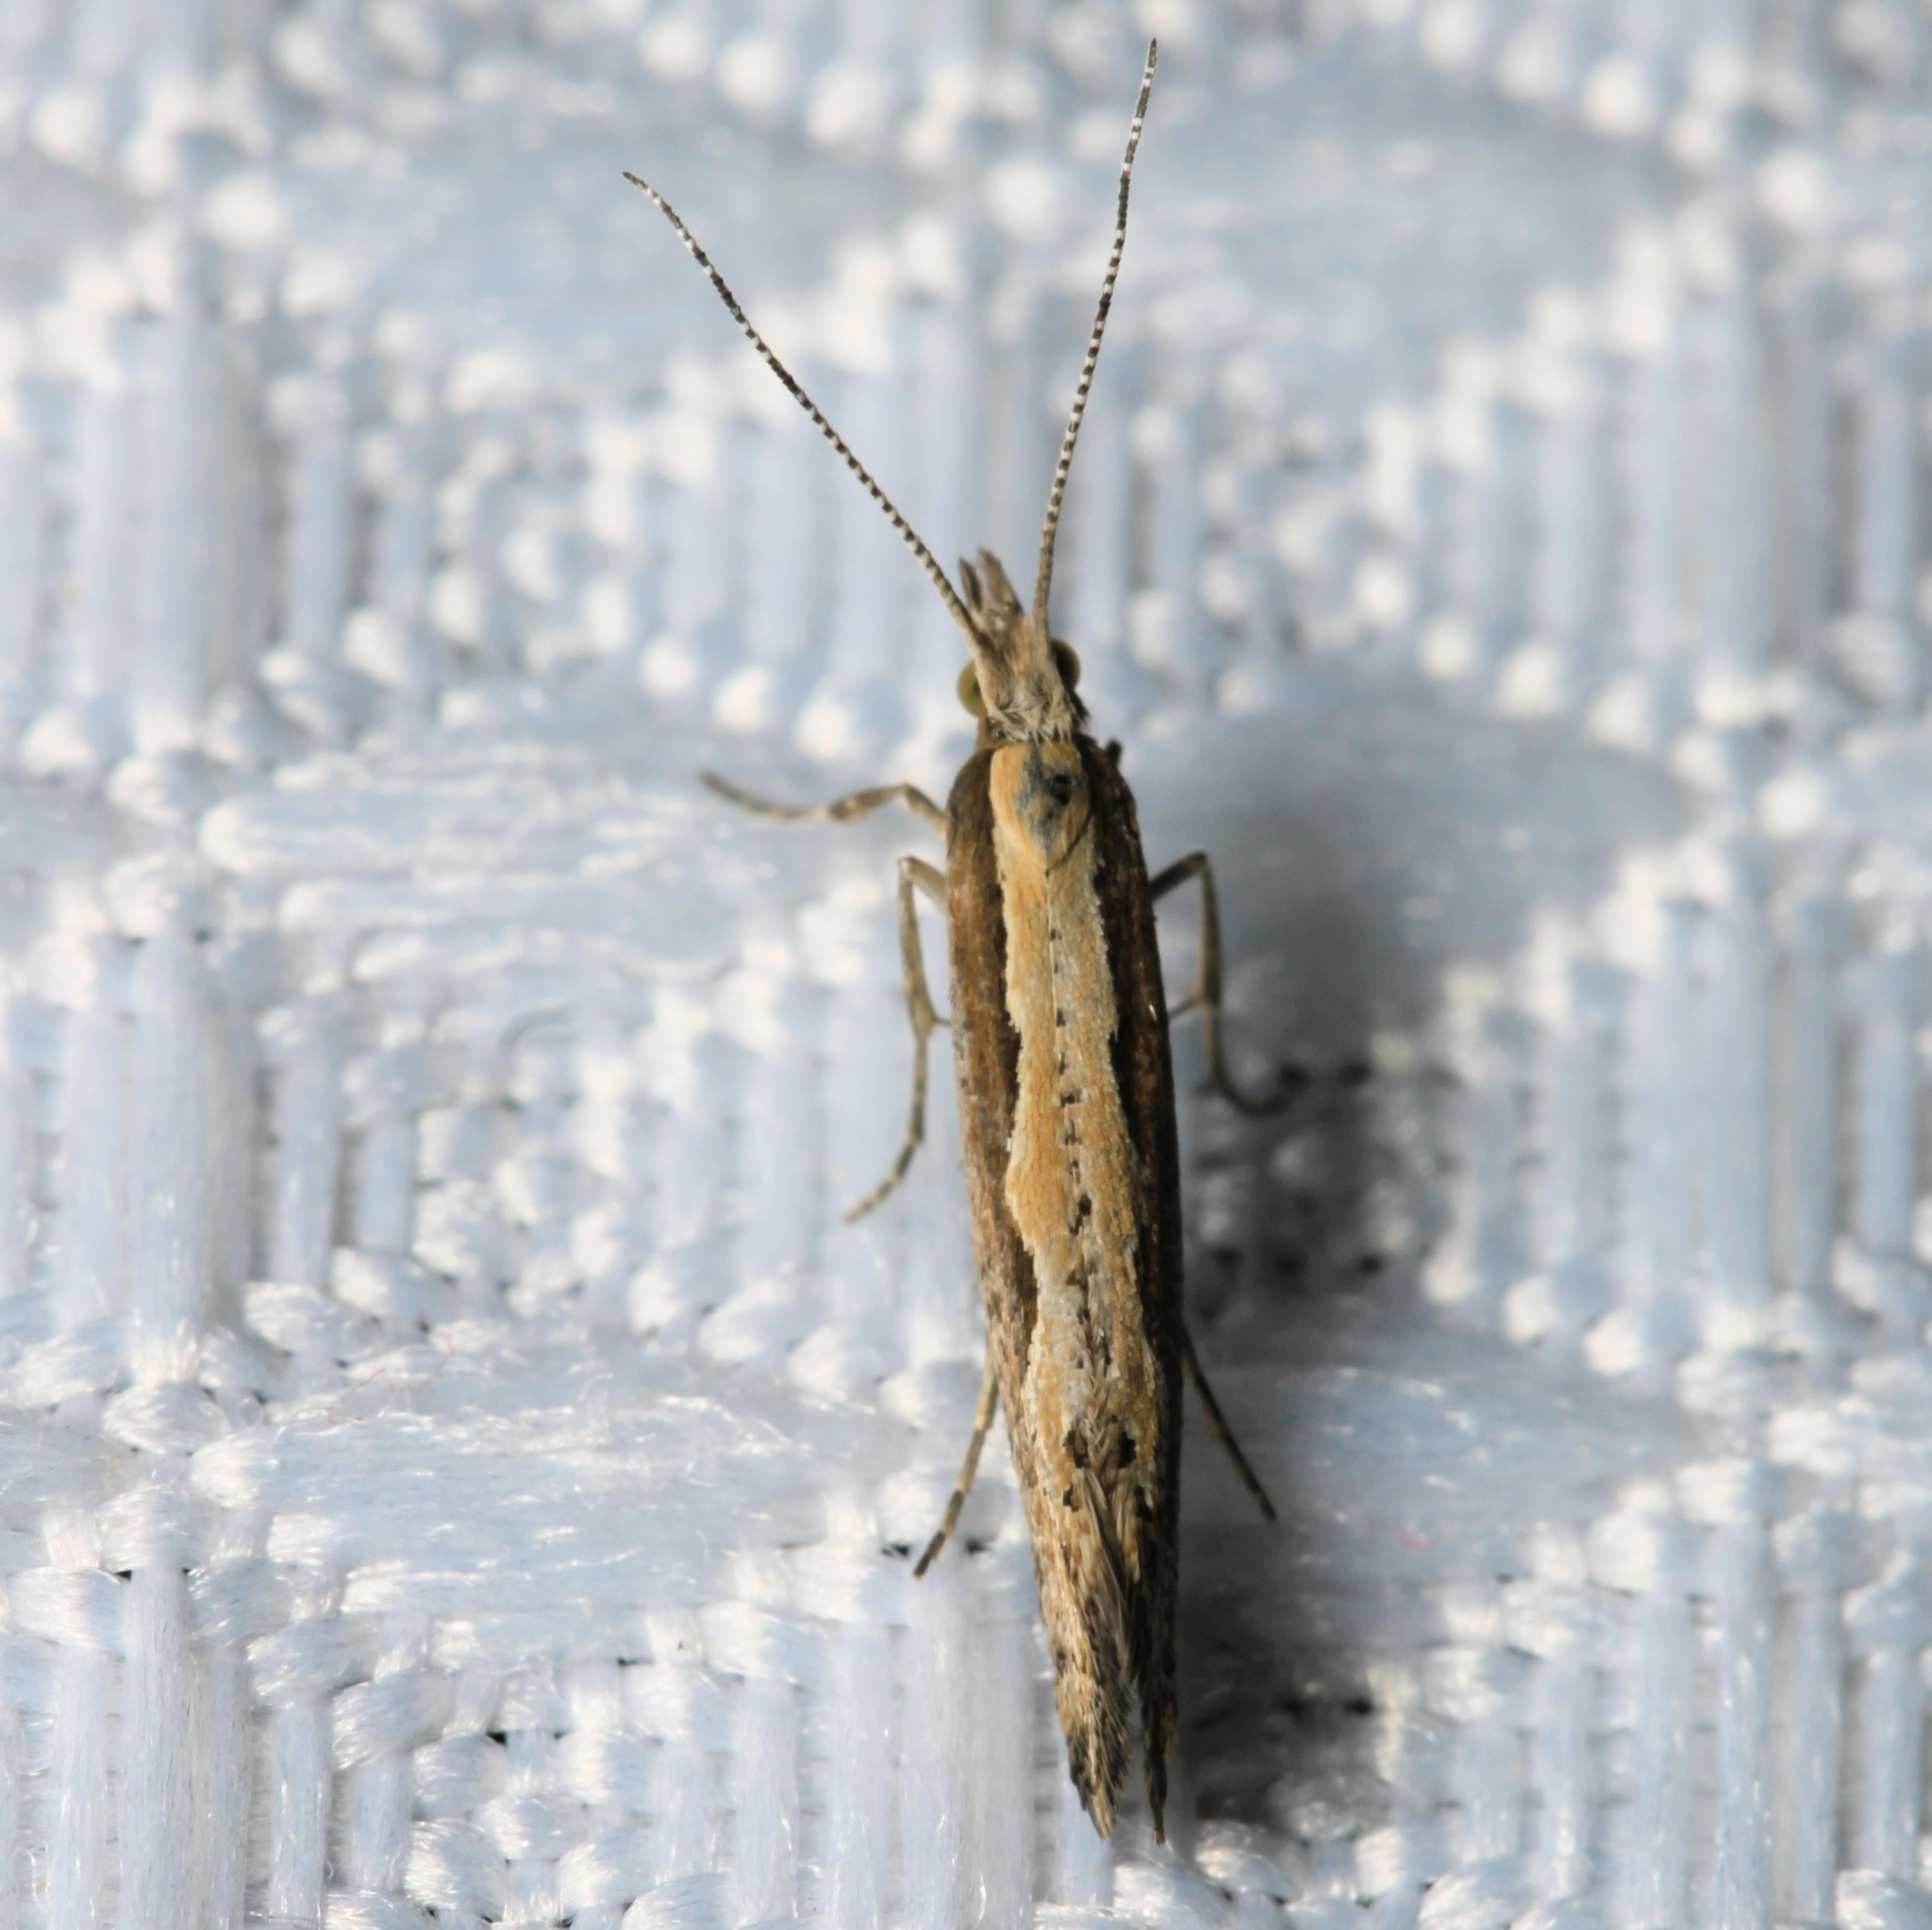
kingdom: Animalia
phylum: Arthropoda
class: Insecta
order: Lepidoptera
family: Plutellidae
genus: Plutella
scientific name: Plutella xylostella
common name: Diamond-back moth
